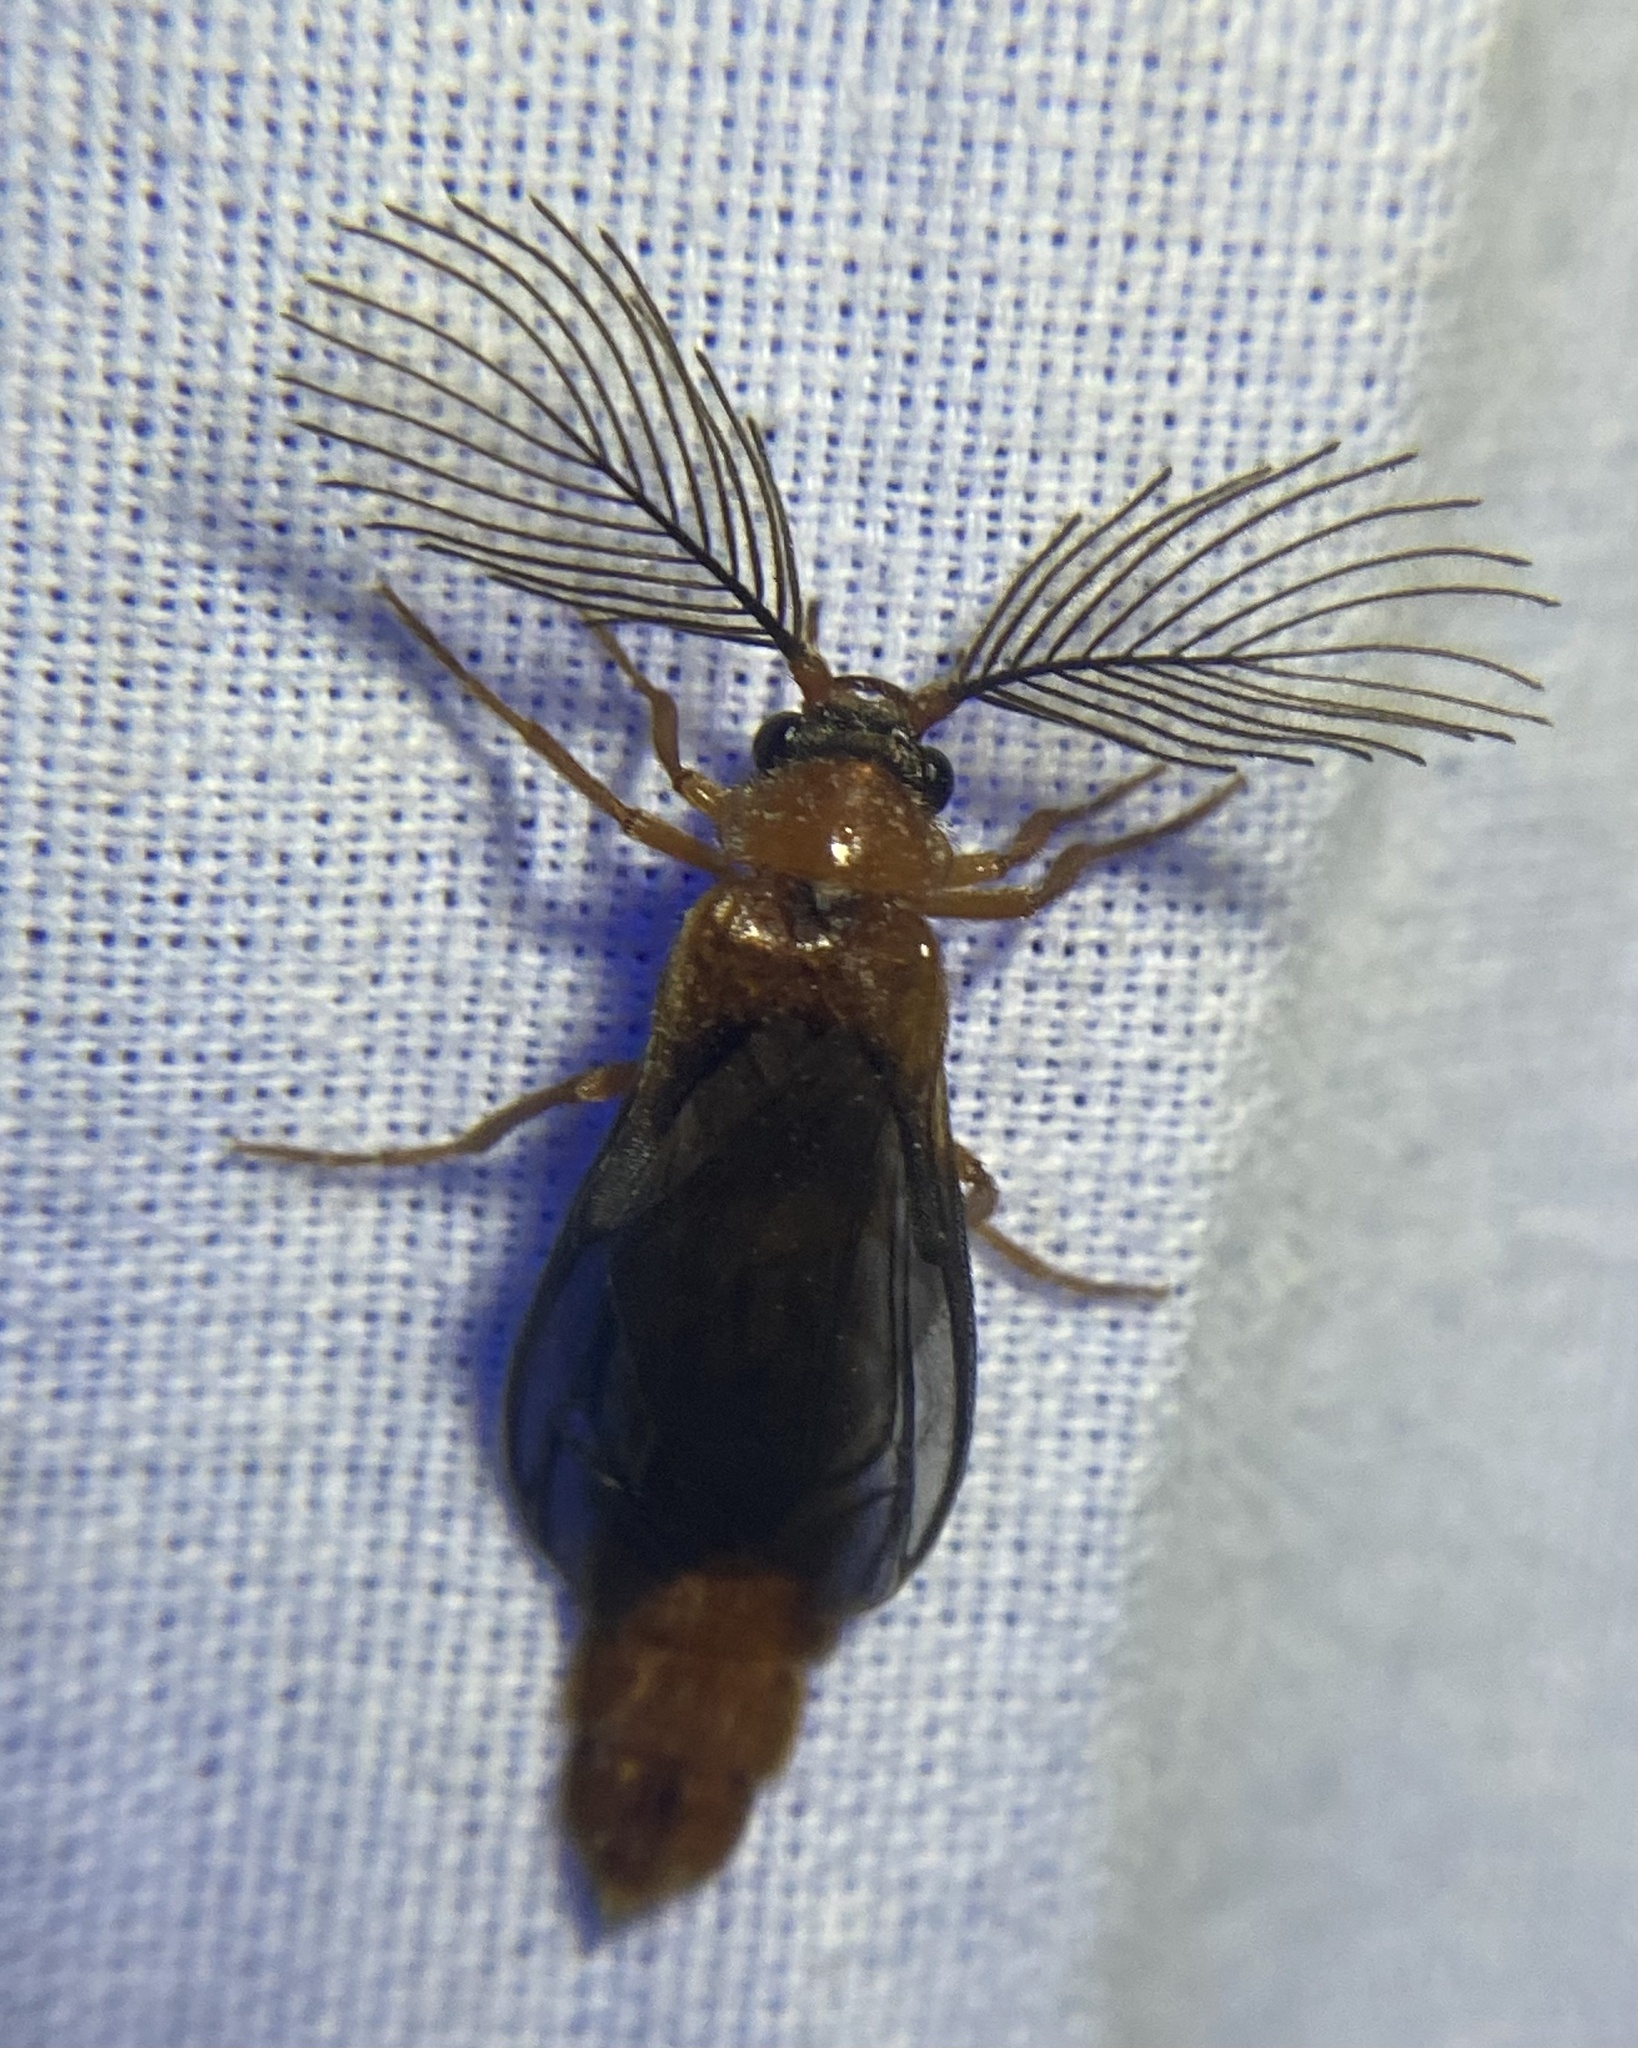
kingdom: Animalia
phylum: Arthropoda
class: Insecta
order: Coleoptera
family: Phengodidae
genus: Phengodes
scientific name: Phengodes
